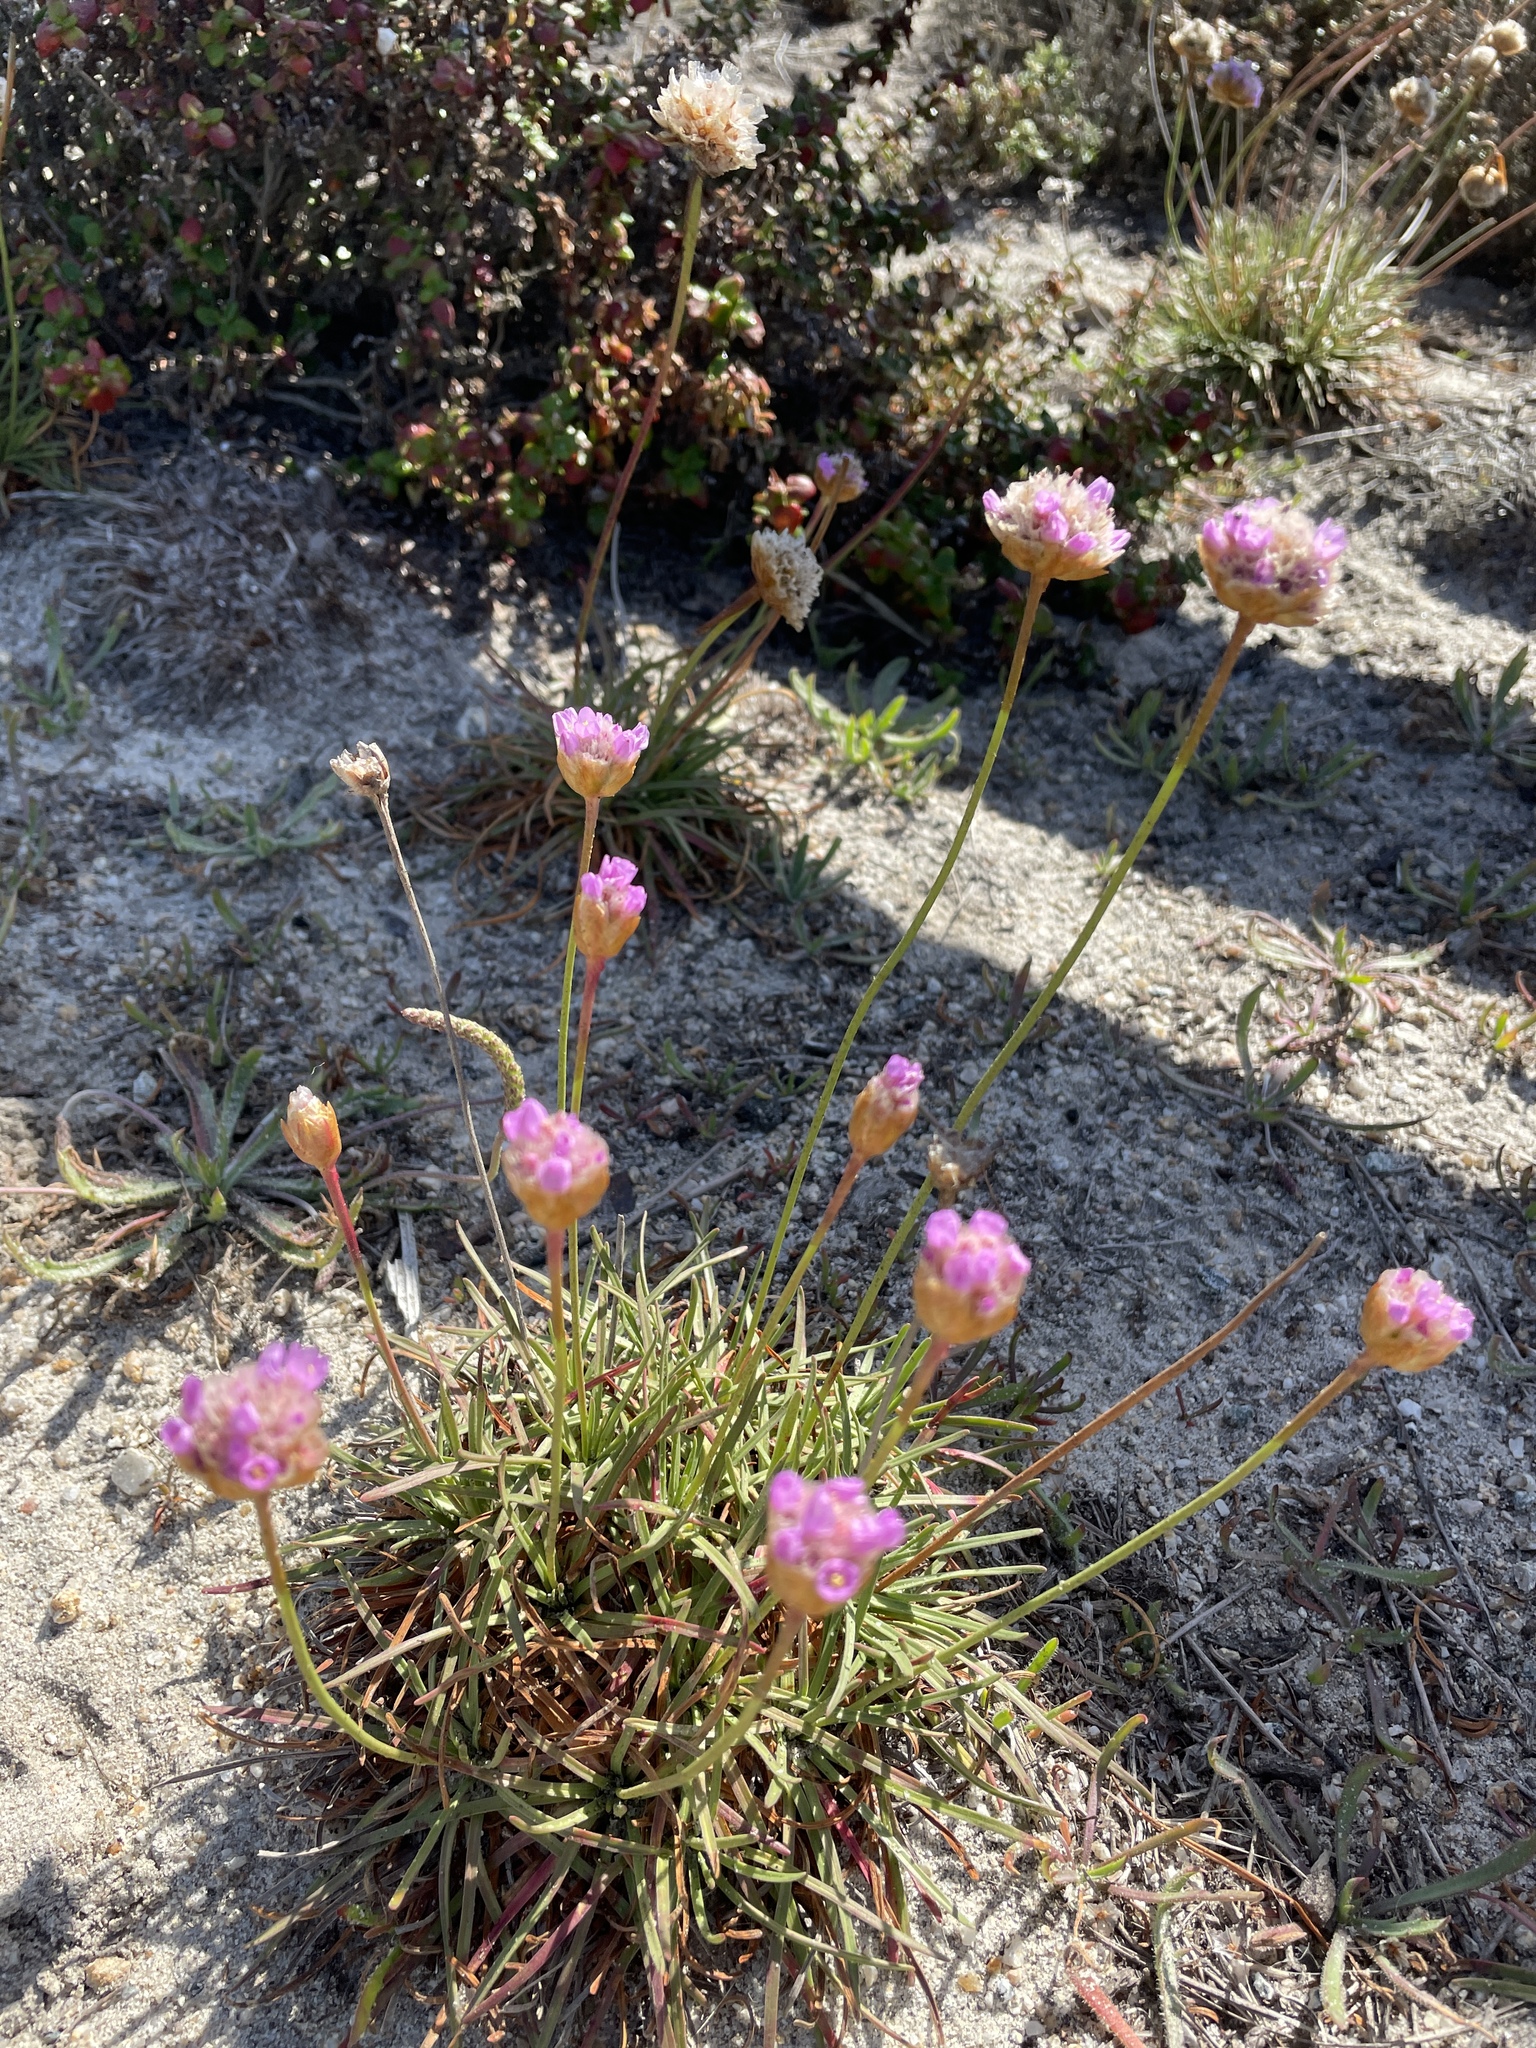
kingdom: Plantae
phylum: Tracheophyta
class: Magnoliopsida
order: Caryophyllales
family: Plumbaginaceae
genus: Armeria
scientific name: Armeria maritima
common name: Thrift
